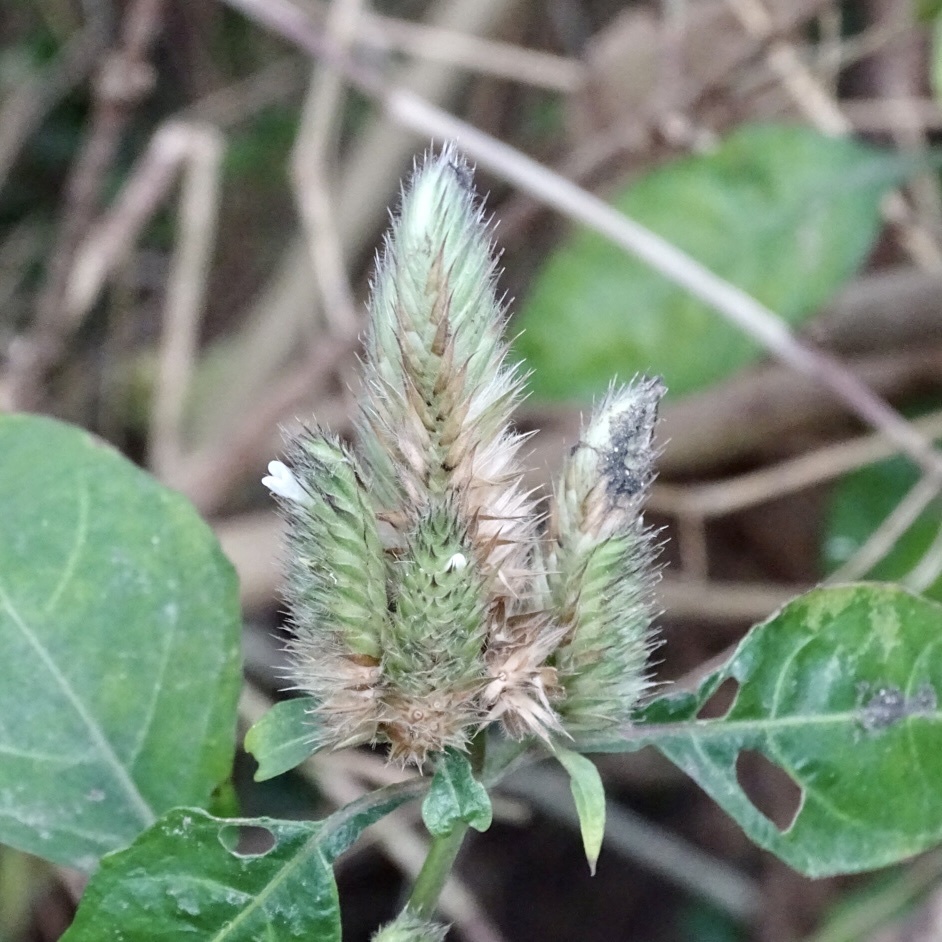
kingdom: Plantae
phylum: Tracheophyta
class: Magnoliopsida
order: Lamiales
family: Acanthaceae
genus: Lepidagathis
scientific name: Lepidagathis incurva
